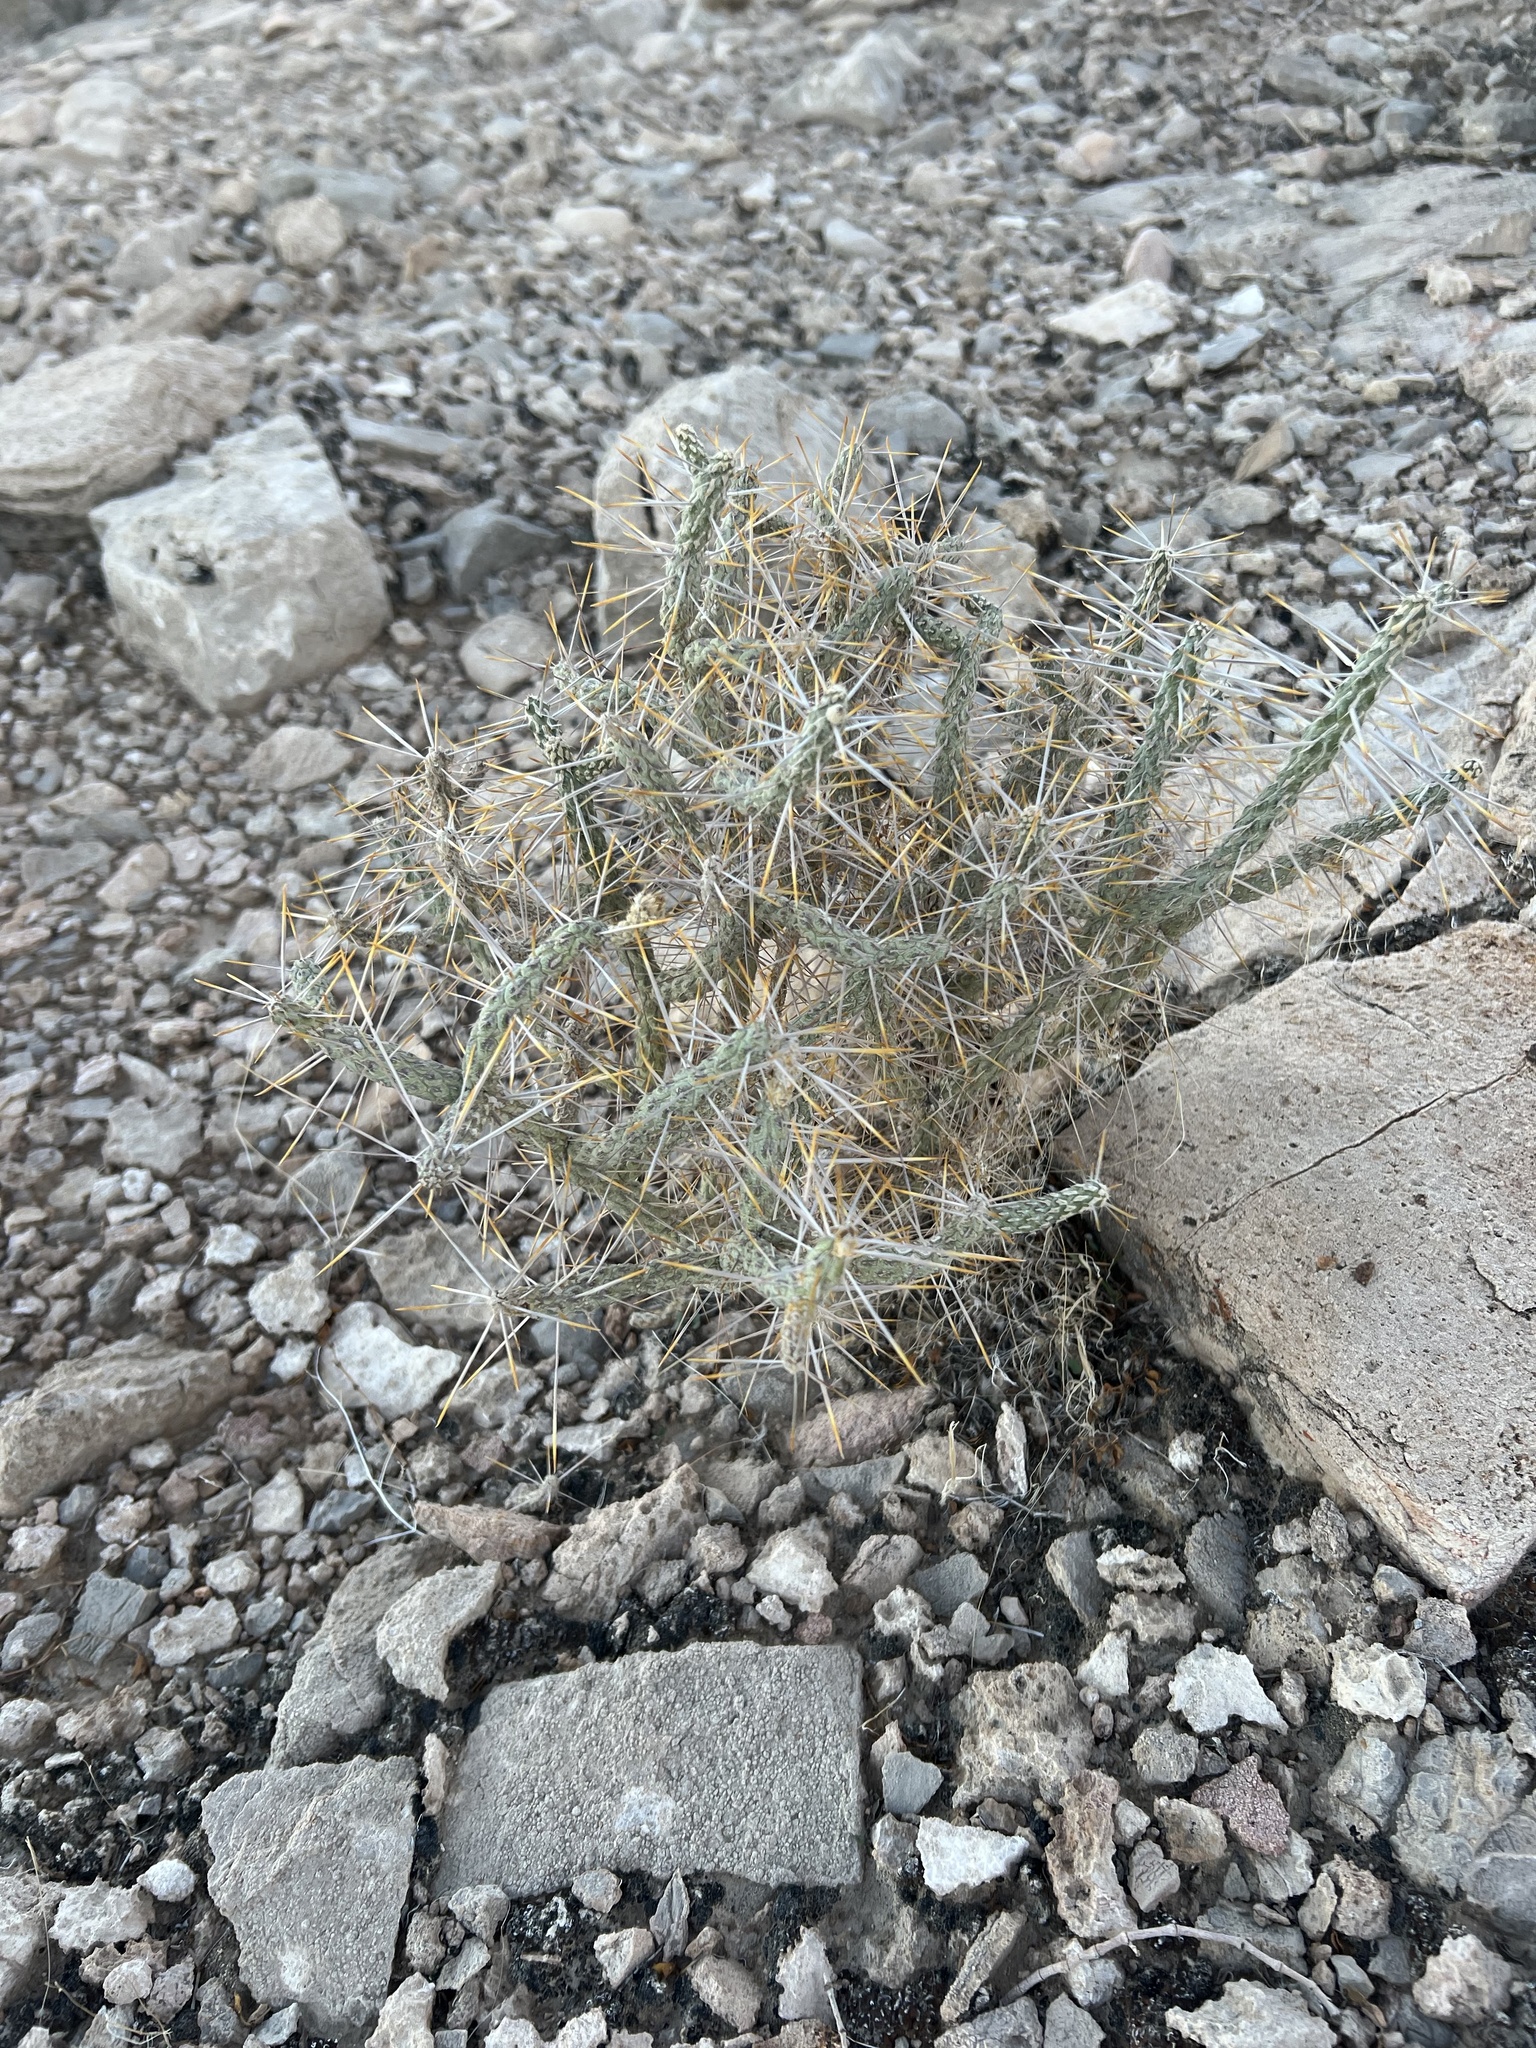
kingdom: Plantae
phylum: Tracheophyta
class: Magnoliopsida
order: Caryophyllales
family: Cactaceae
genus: Cylindropuntia
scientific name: Cylindropuntia ramosissima
